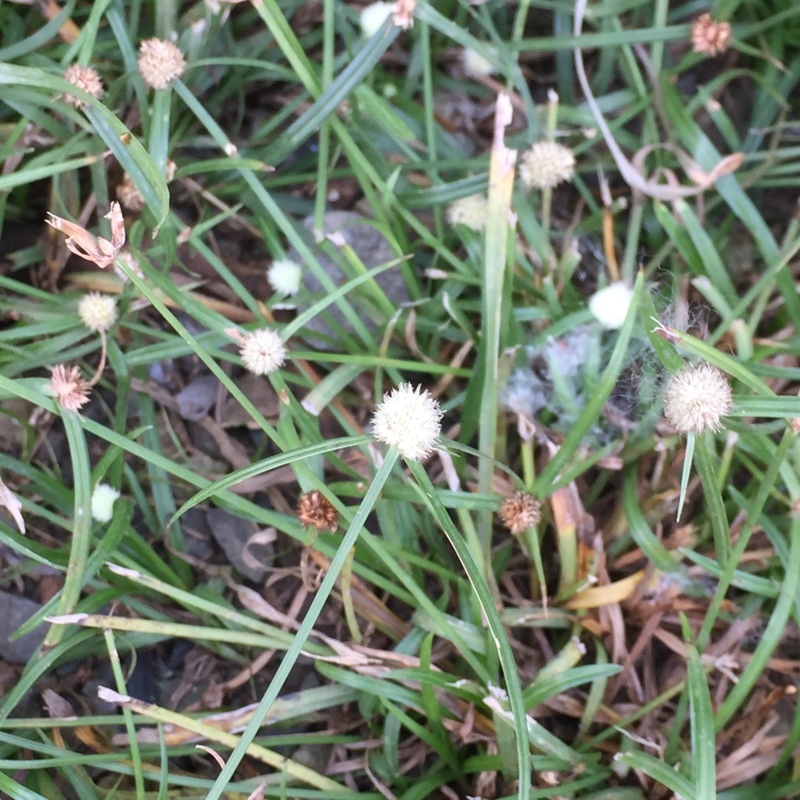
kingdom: Plantae
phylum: Tracheophyta
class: Liliopsida
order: Poales
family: Cyperaceae
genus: Cyperus
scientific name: Cyperus mindorensis
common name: Flatsedge
